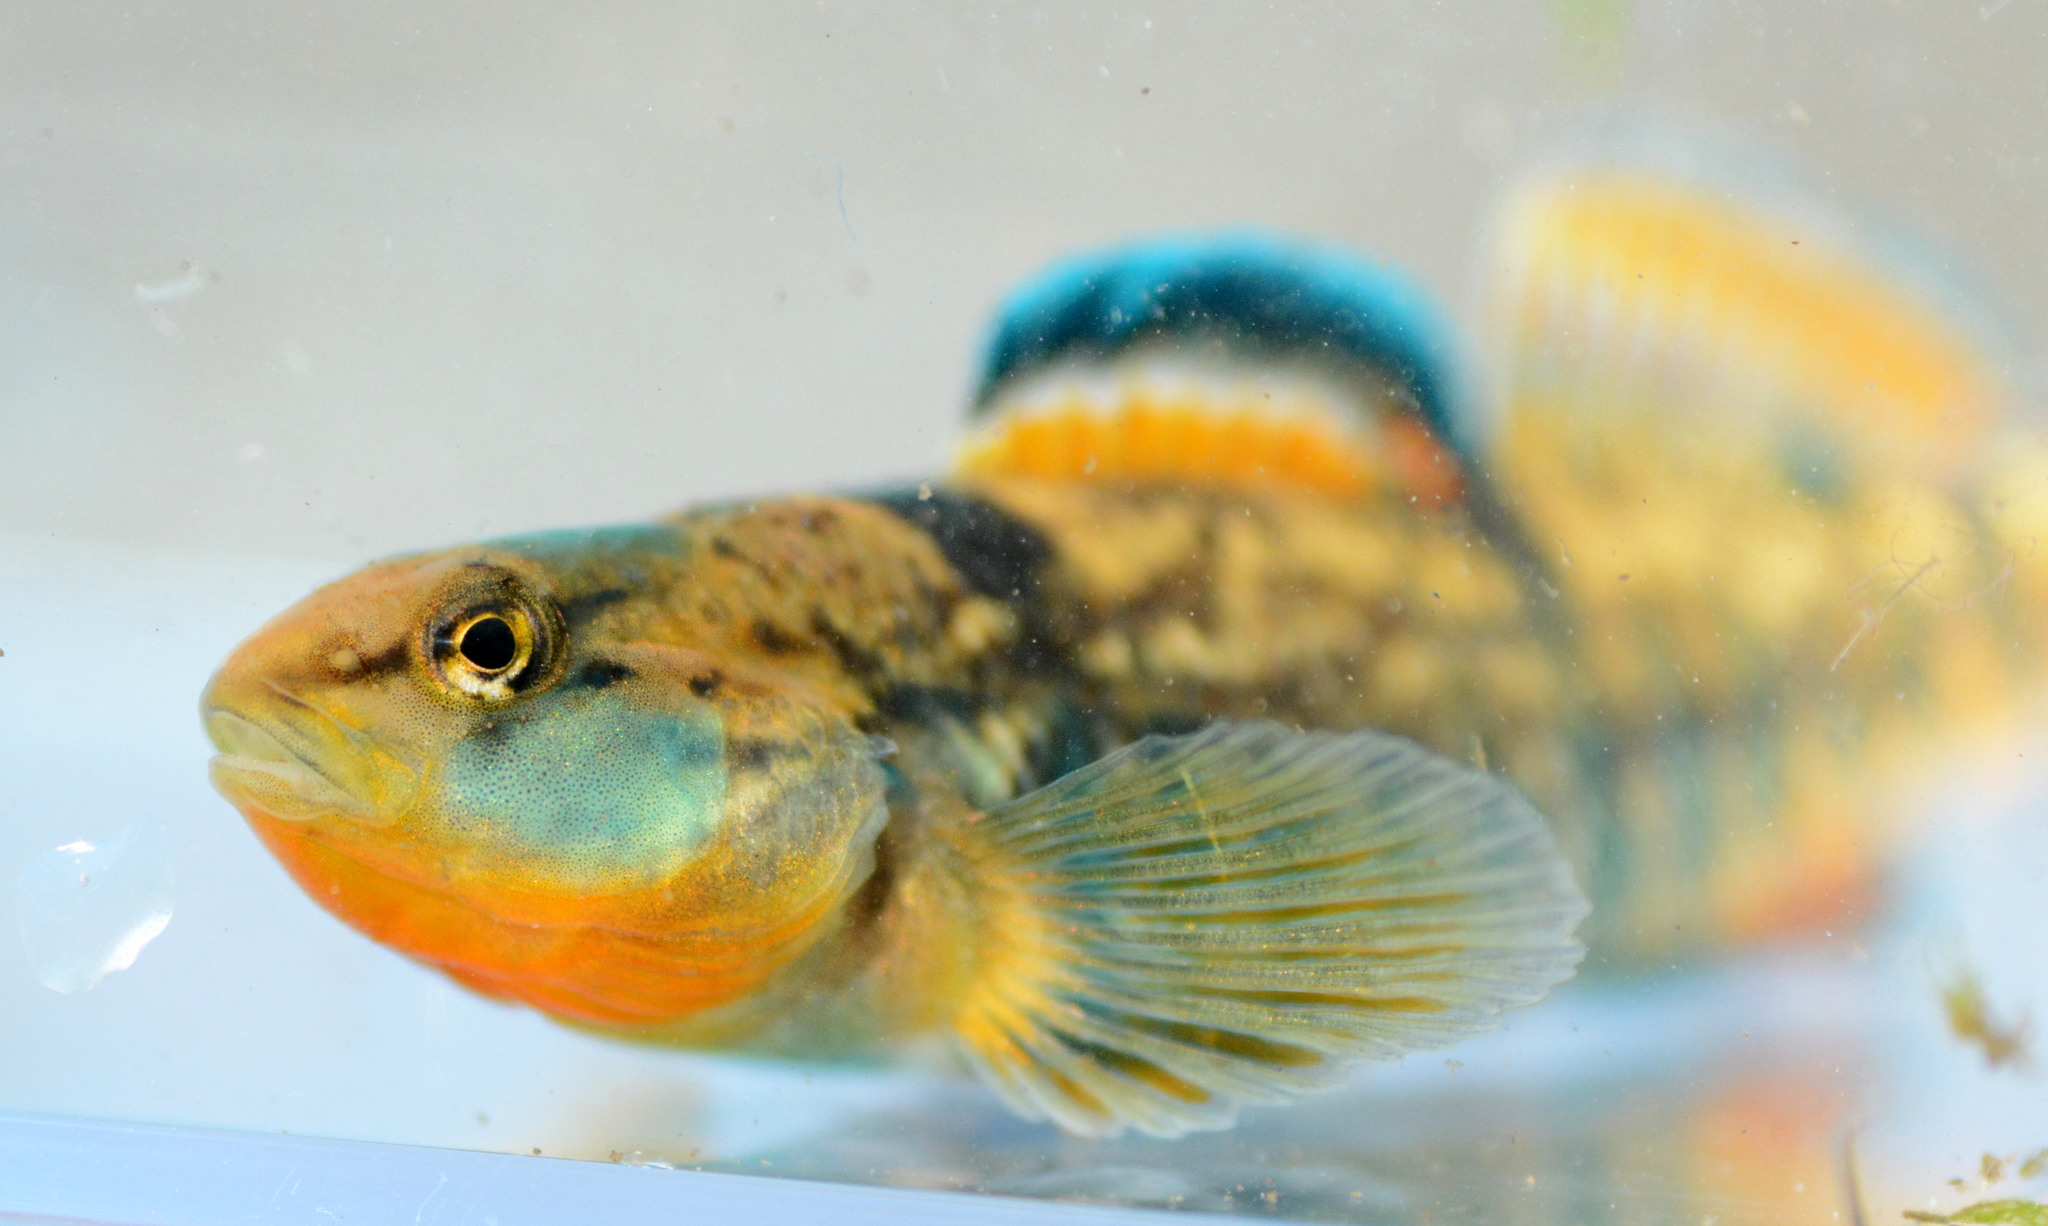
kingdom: Animalia
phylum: Chordata
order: Perciformes
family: Percidae
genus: Etheostoma
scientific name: Etheostoma caeruleum
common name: Rainbow darter
